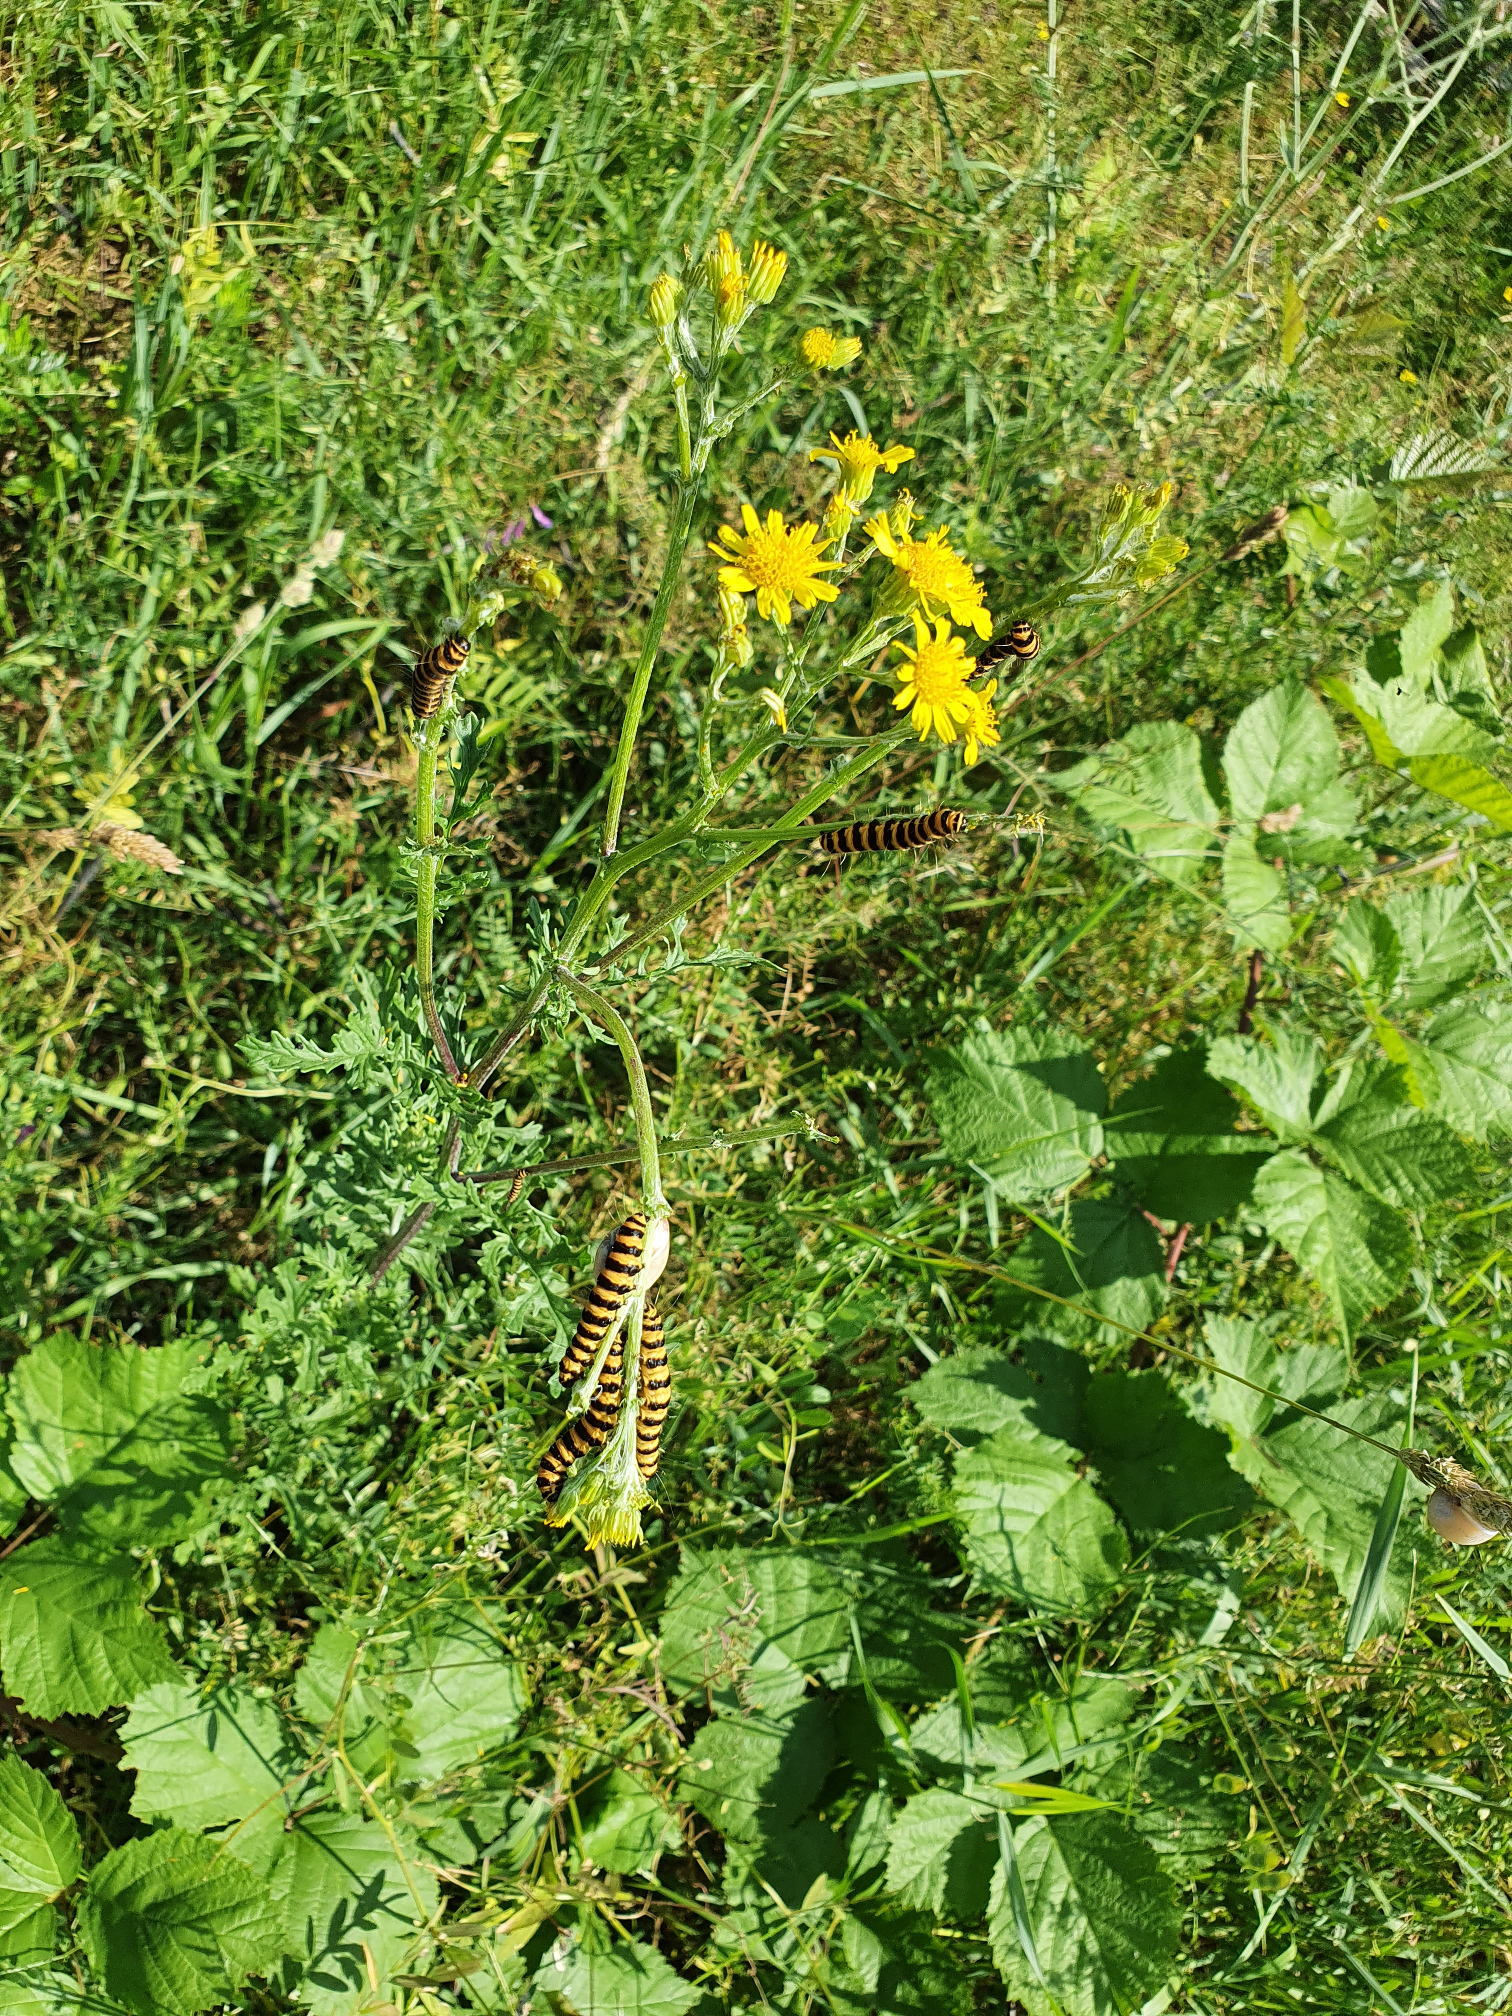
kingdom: Plantae
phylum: Tracheophyta
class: Magnoliopsida
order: Asterales
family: Asteraceae
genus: Jacobaea
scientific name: Jacobaea vulgaris
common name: Stinking willie
